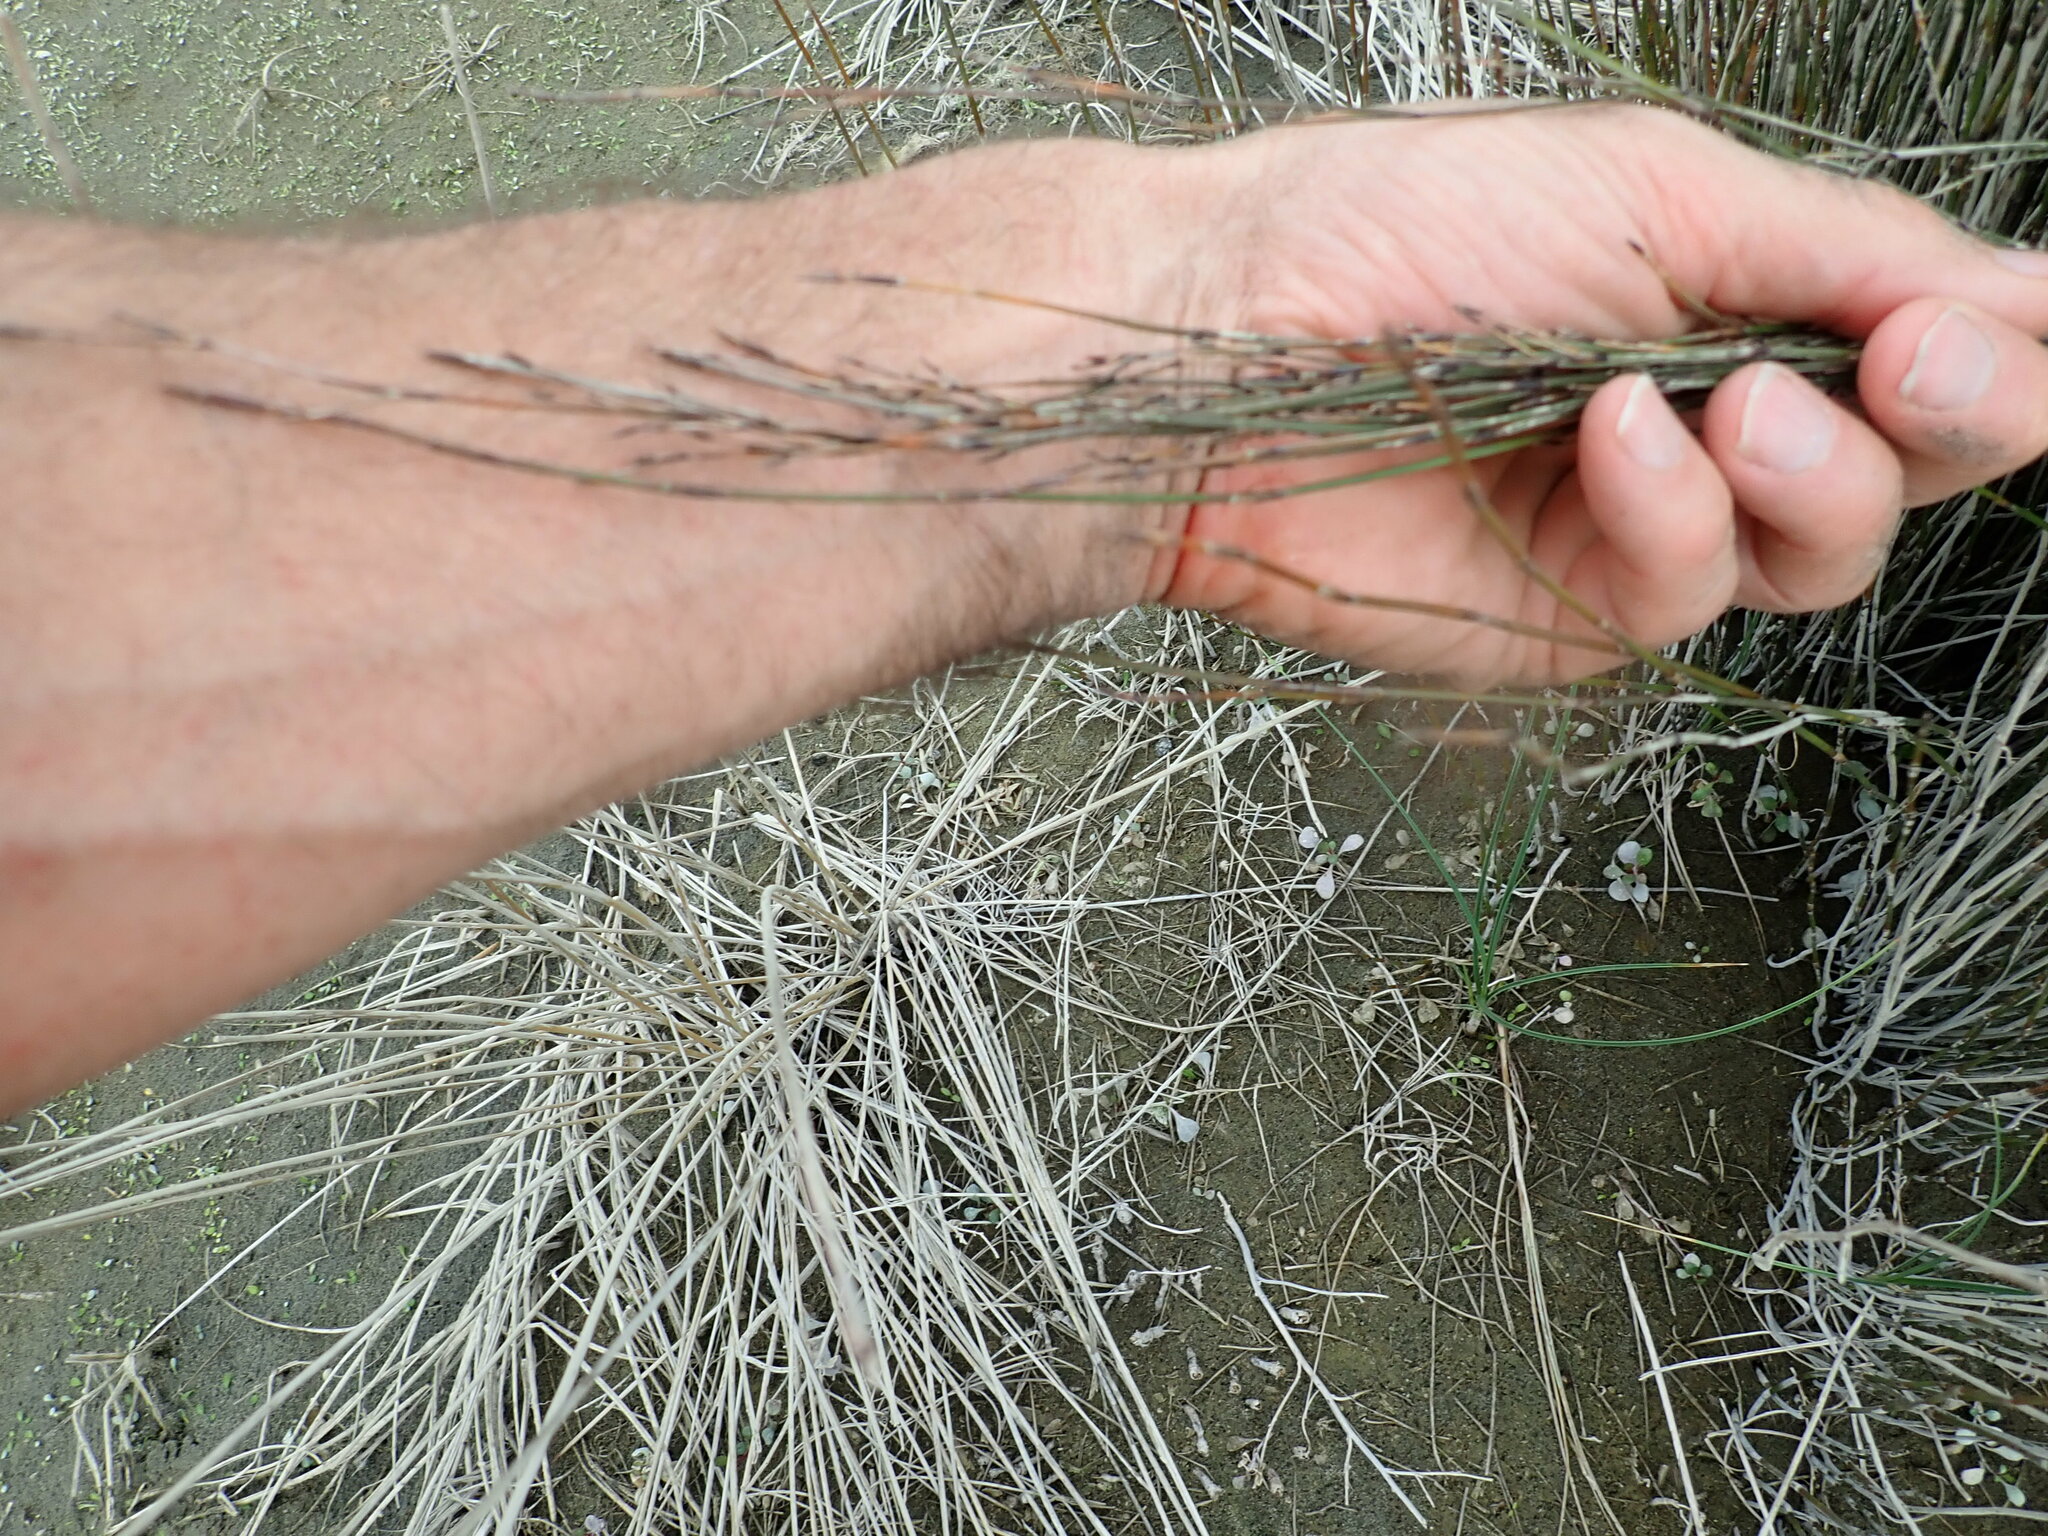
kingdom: Plantae
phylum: Tracheophyta
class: Liliopsida
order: Poales
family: Restionaceae
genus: Apodasmia
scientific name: Apodasmia similis
